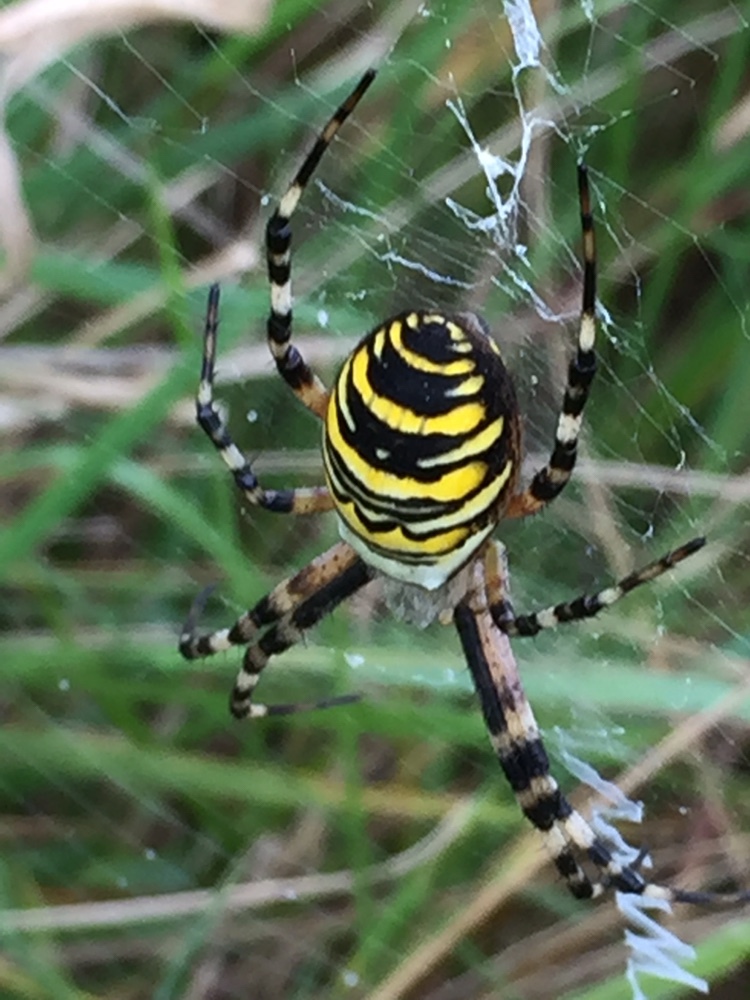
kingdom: Animalia
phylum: Arthropoda
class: Arachnida
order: Araneae
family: Araneidae
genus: Argiope
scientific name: Argiope bruennichi
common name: Wasp spider
